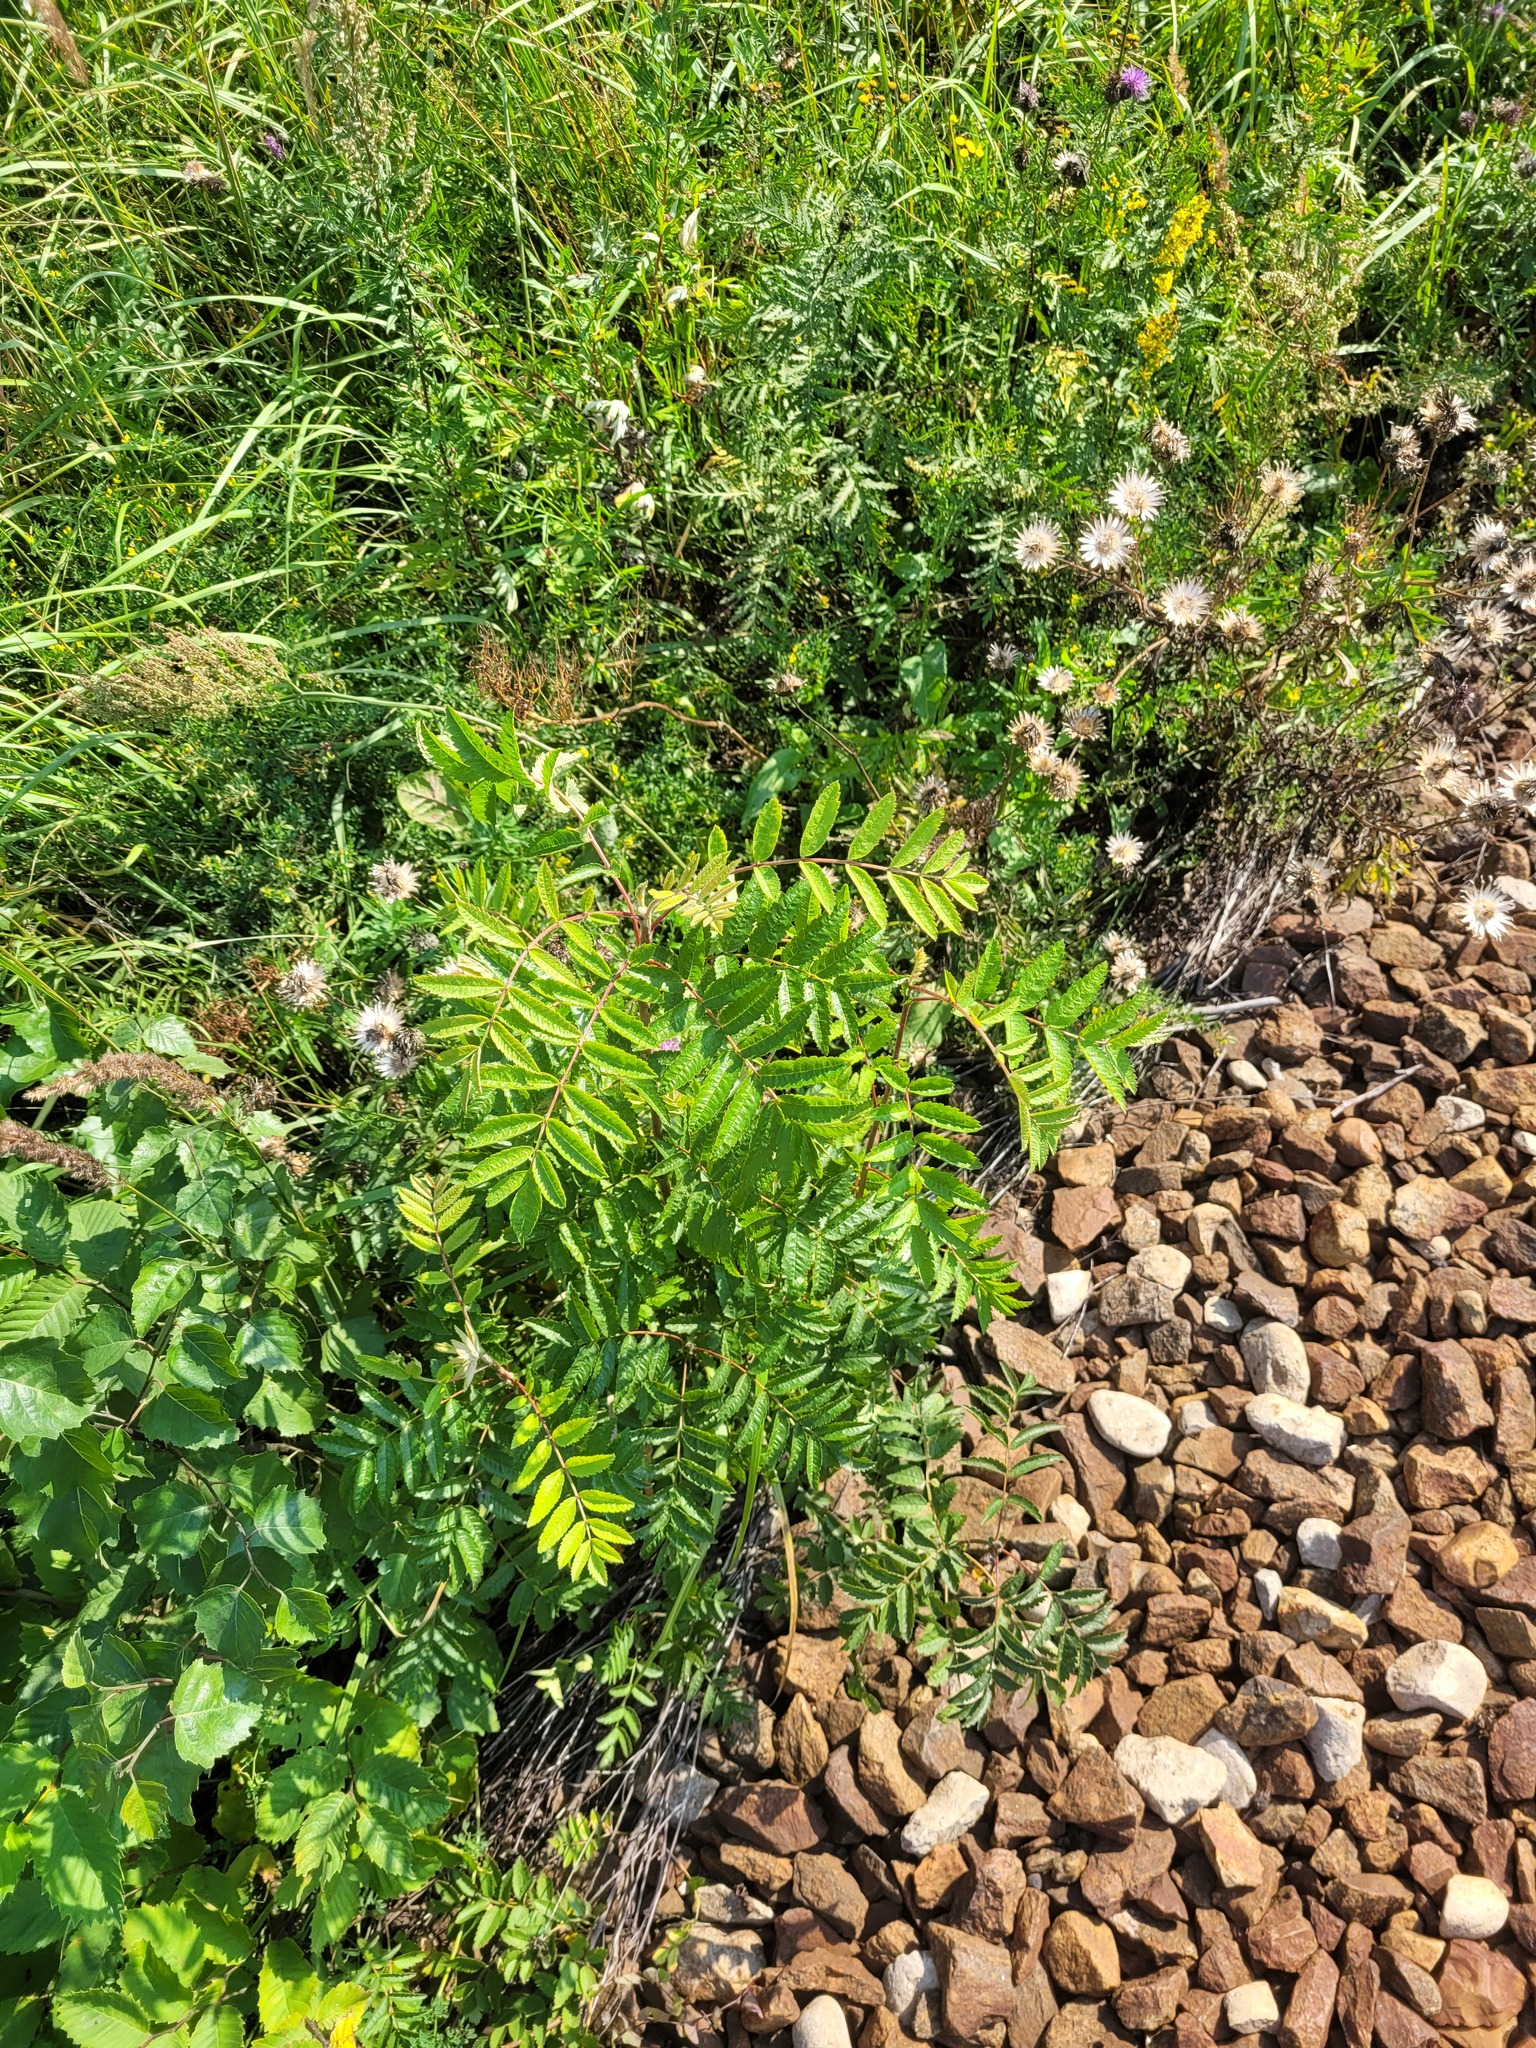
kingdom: Plantae
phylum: Tracheophyta
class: Magnoliopsida
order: Rosales
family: Rosaceae
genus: Sorbus
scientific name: Sorbus aucuparia
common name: Rowan
